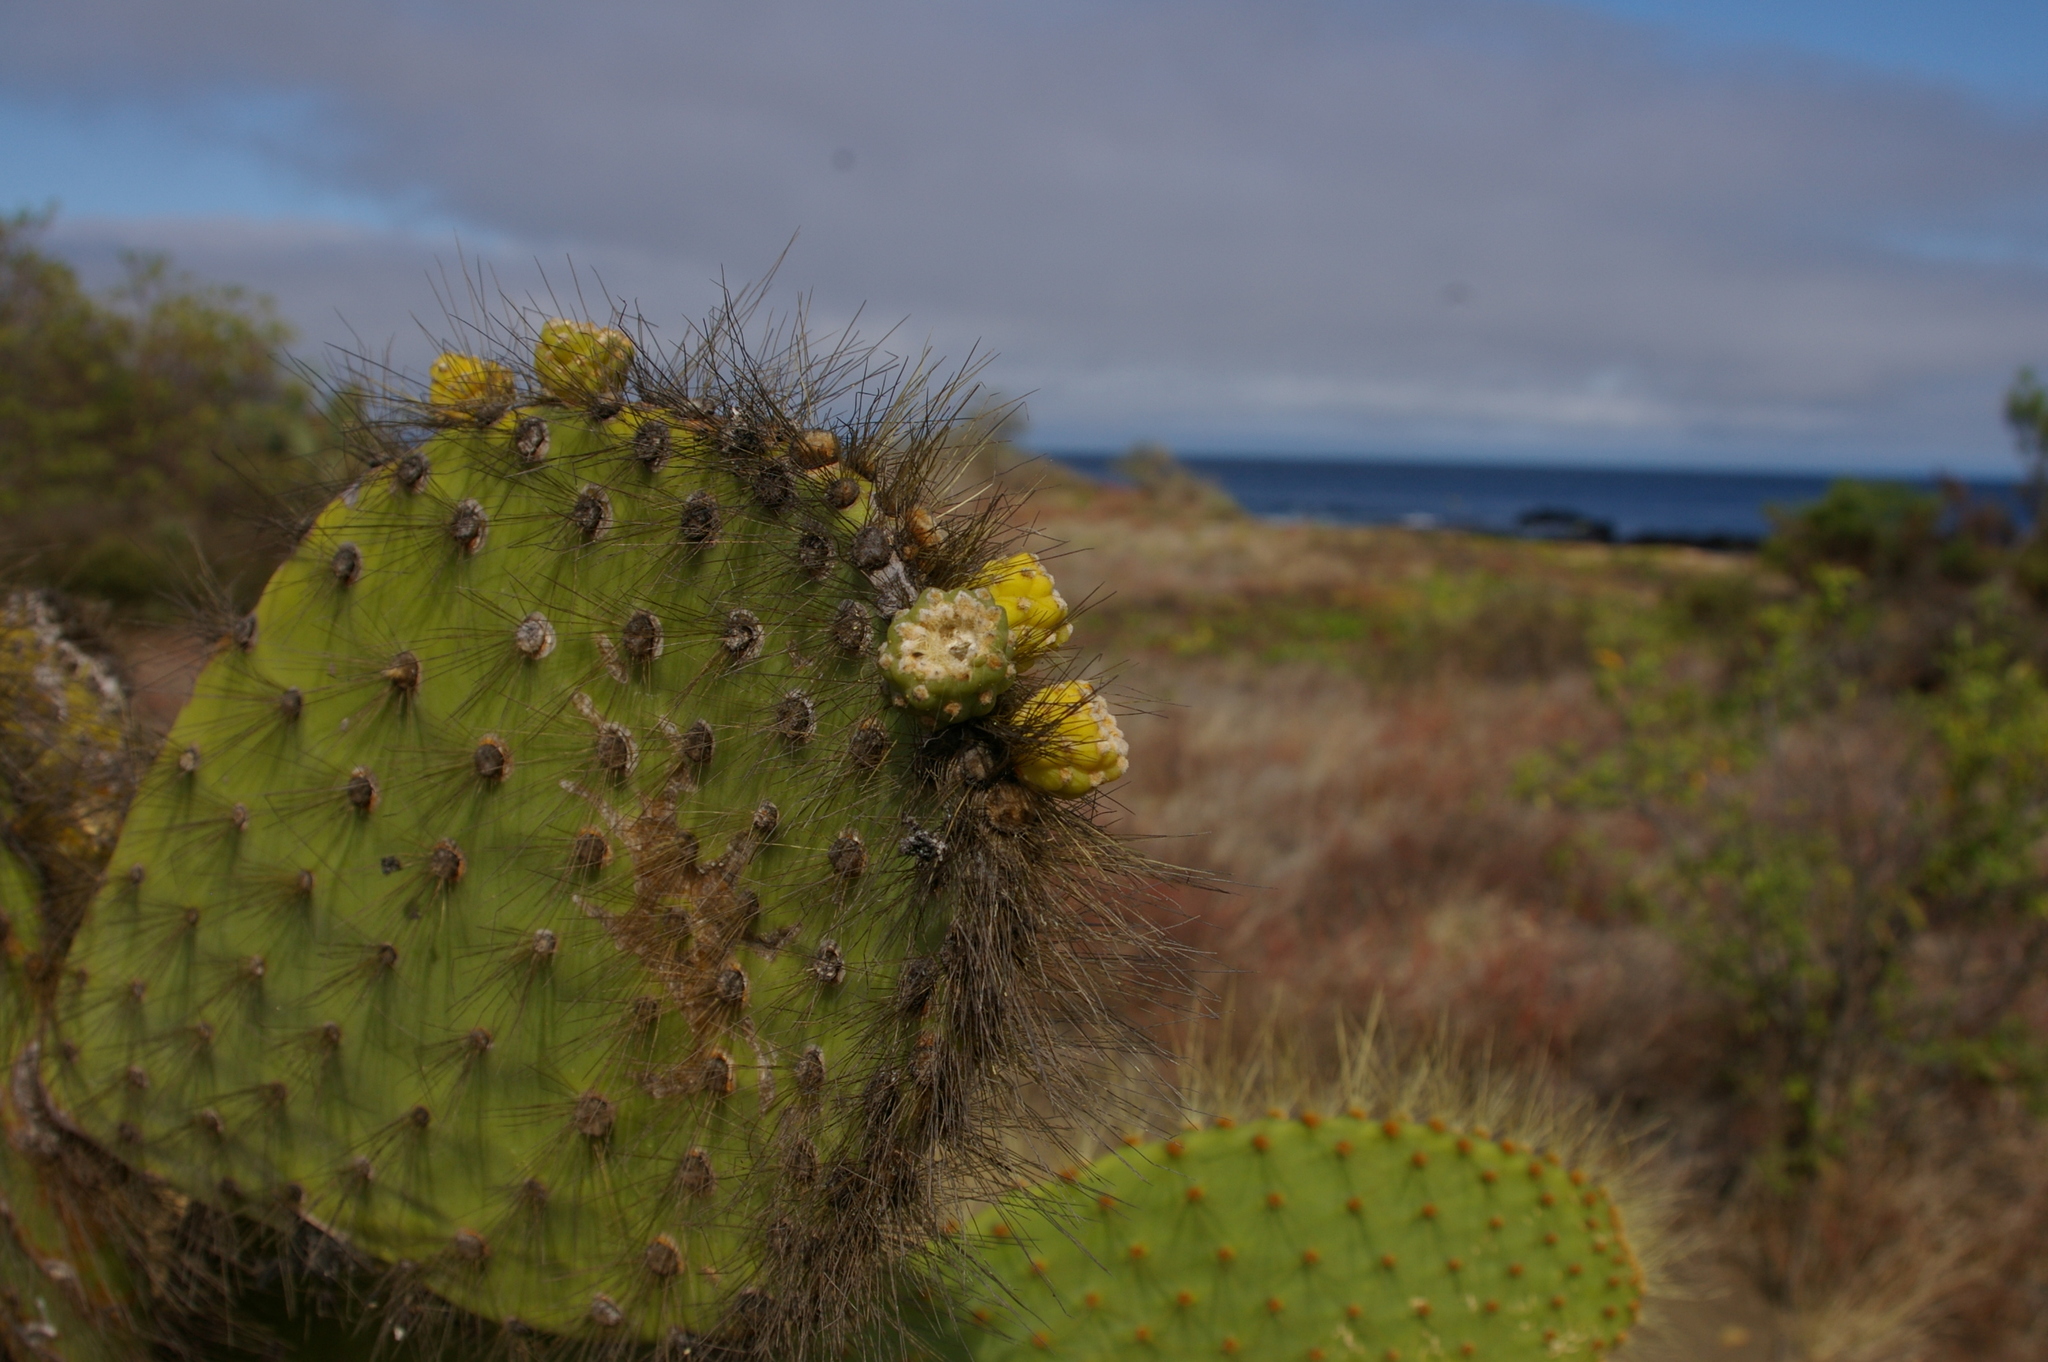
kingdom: Plantae
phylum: Tracheophyta
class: Magnoliopsida
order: Caryophyllales
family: Cactaceae
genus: Opuntia
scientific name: Opuntia galapageia
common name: Galápagos prickly pear
